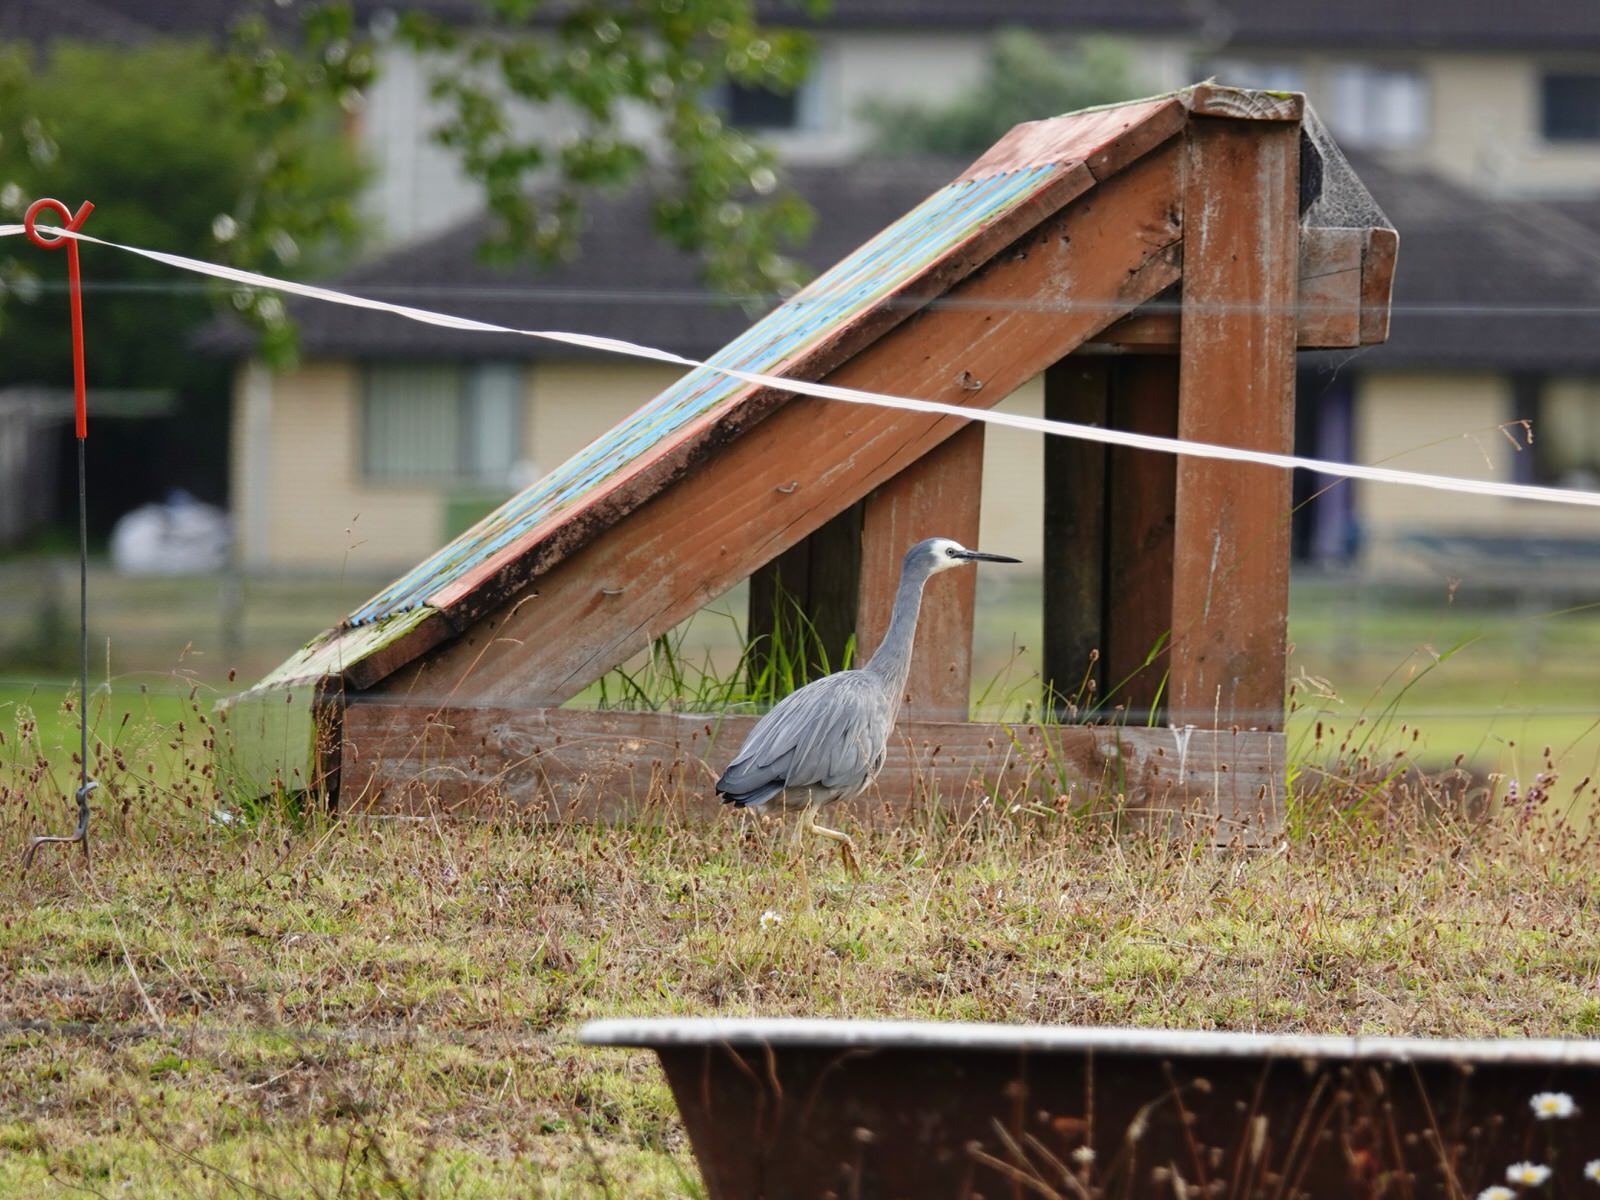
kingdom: Animalia
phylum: Chordata
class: Aves
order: Pelecaniformes
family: Ardeidae
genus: Egretta
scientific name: Egretta novaehollandiae
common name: White-faced heron
